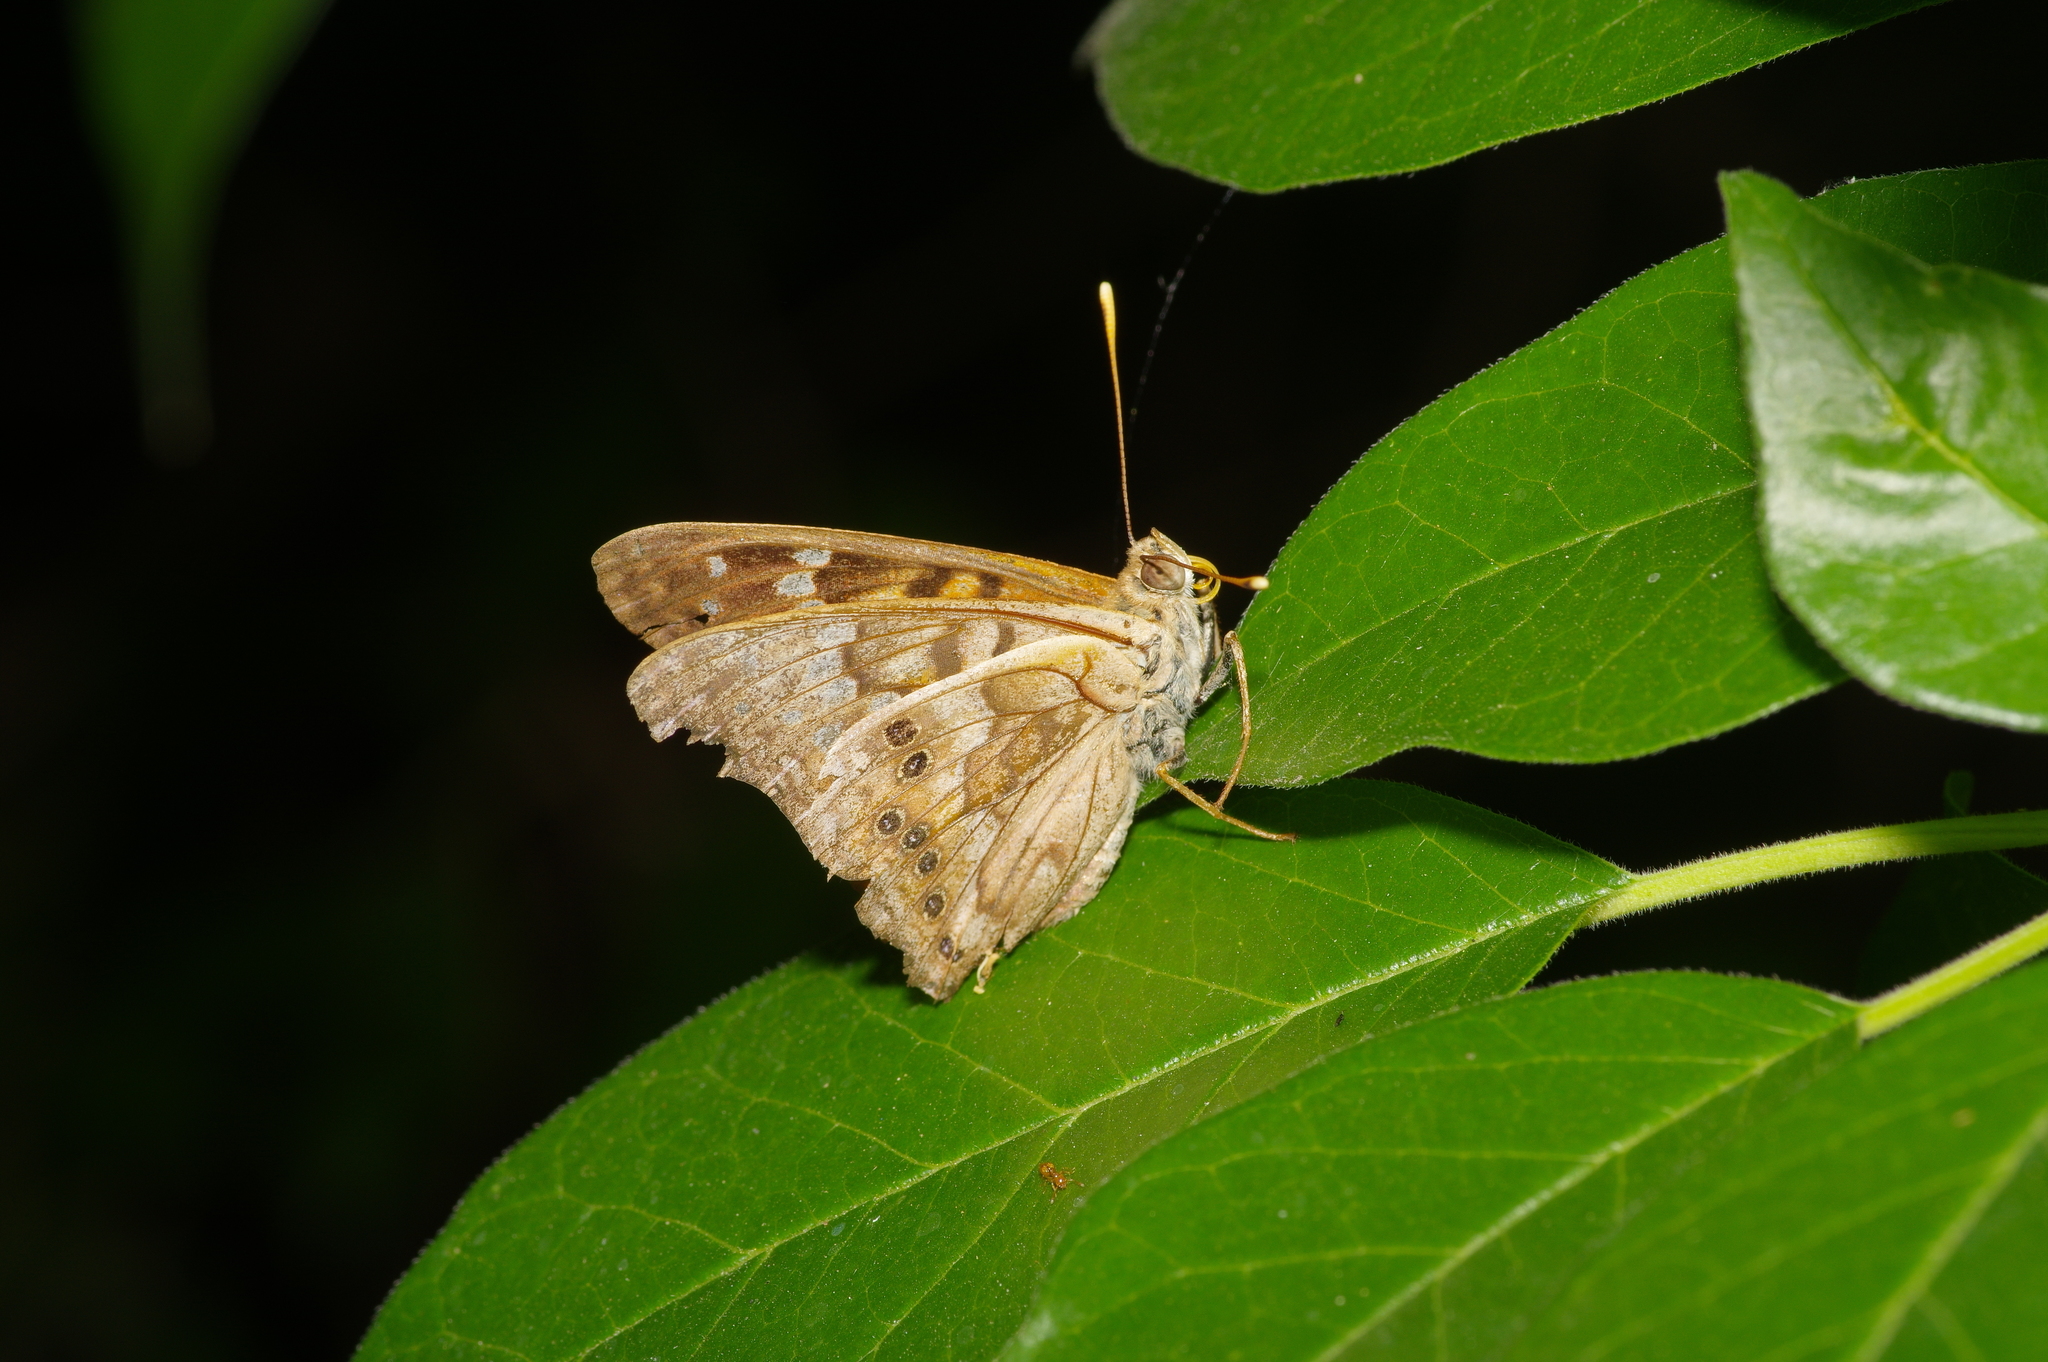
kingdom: Animalia
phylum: Arthropoda
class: Insecta
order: Lepidoptera
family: Nymphalidae
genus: Asterocampa
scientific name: Asterocampa clyton
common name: Tawny emperor
